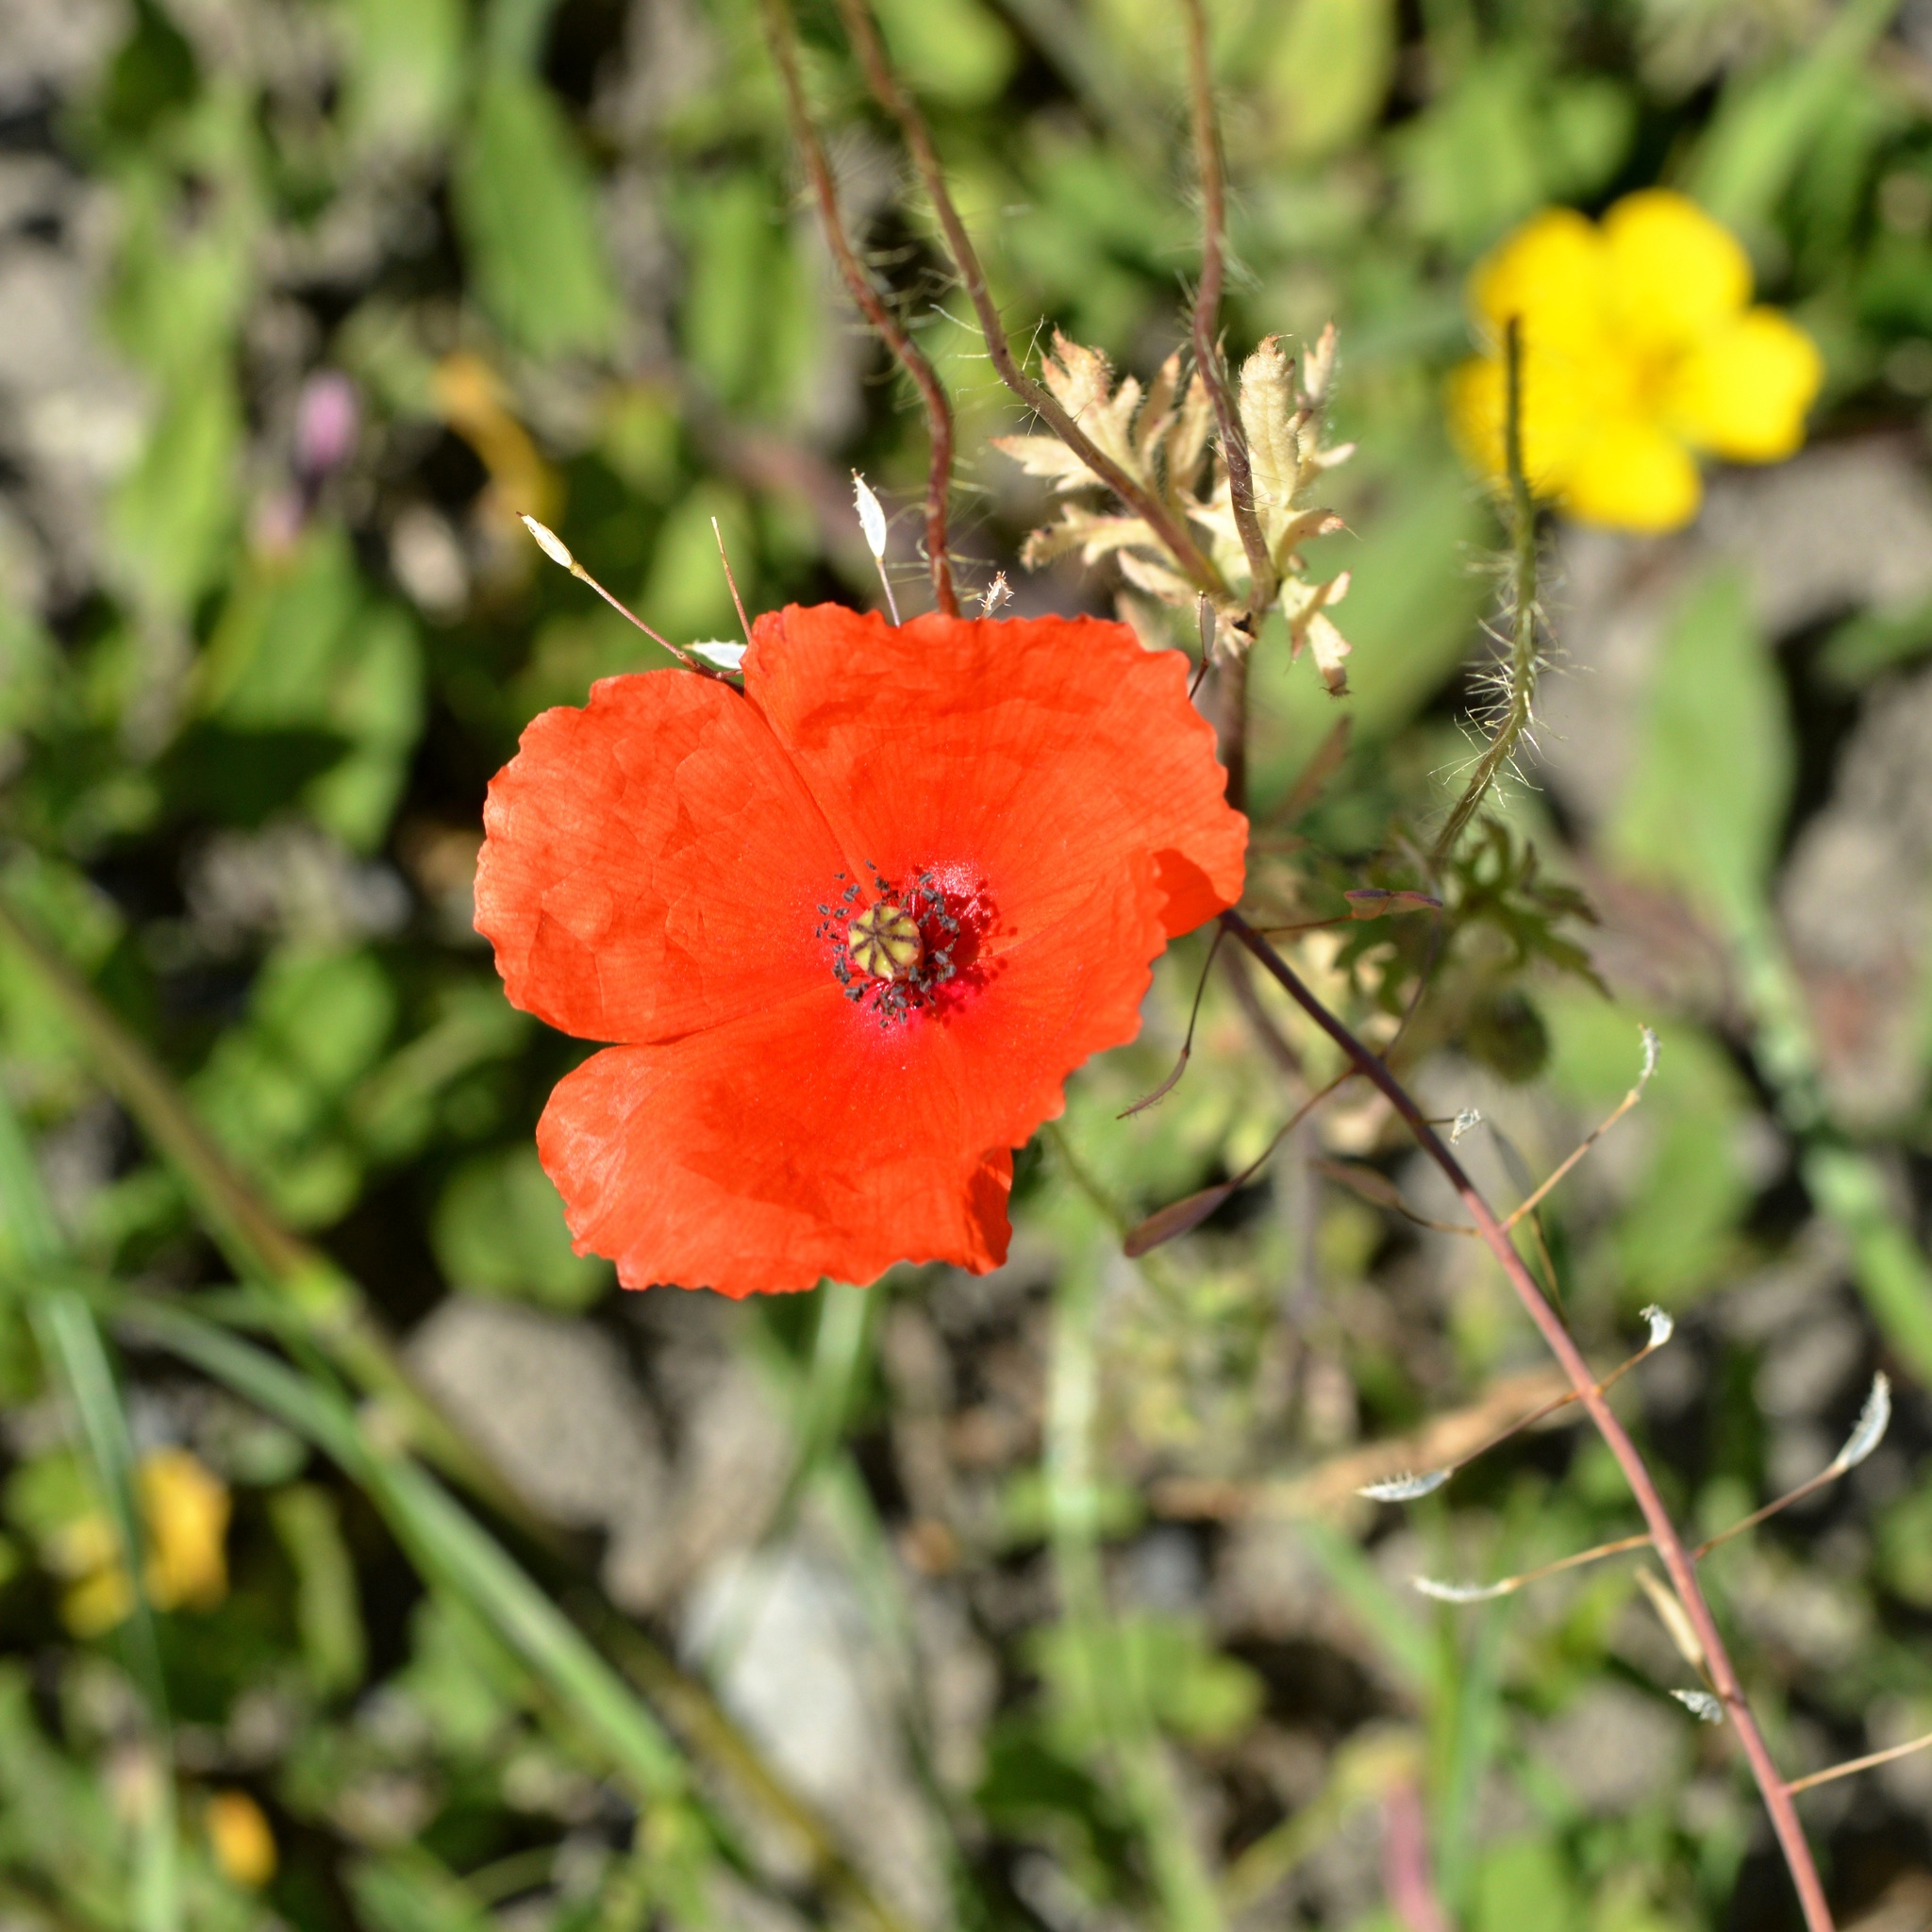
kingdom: Plantae
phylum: Tracheophyta
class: Magnoliopsida
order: Ranunculales
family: Papaveraceae
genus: Papaver
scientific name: Papaver rhoeas
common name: Corn poppy
